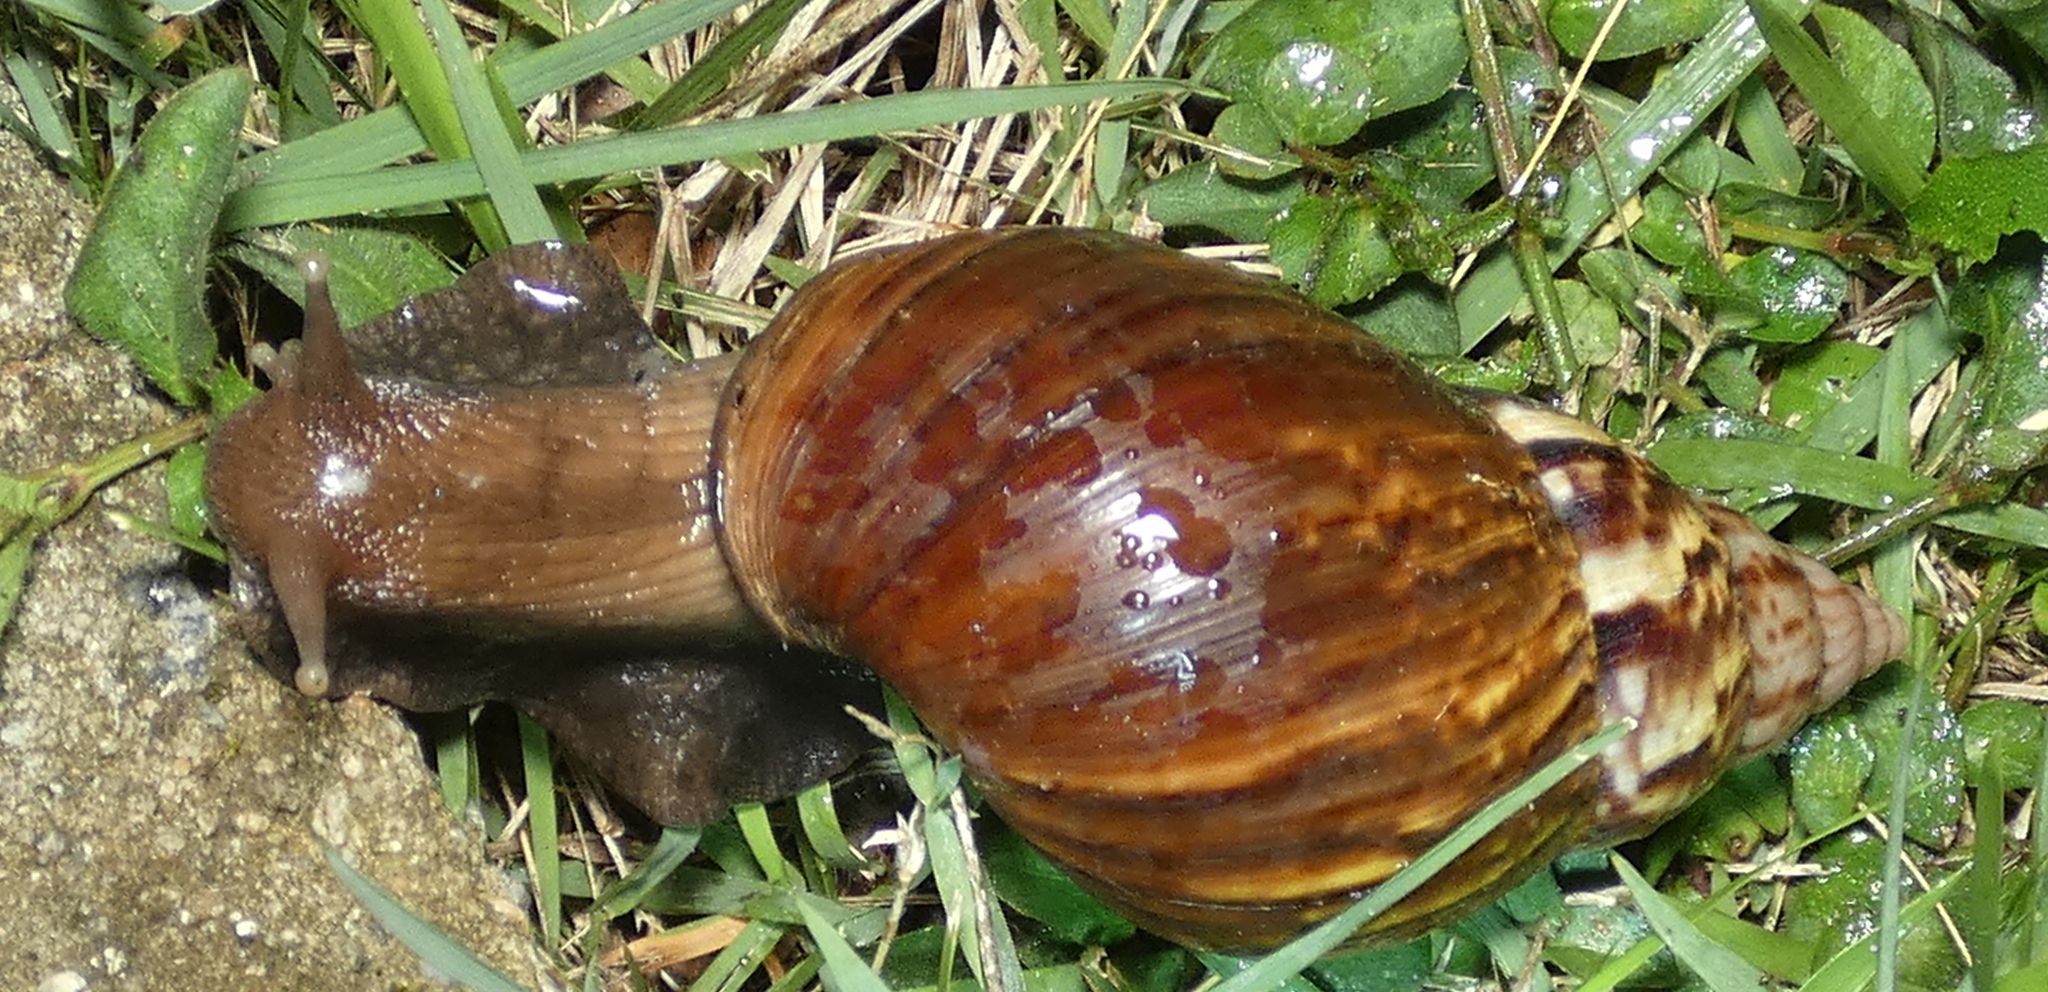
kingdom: Animalia
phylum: Mollusca
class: Gastropoda
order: Stylommatophora
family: Achatinidae
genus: Lissachatina
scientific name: Lissachatina fulica
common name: Giant african snail
